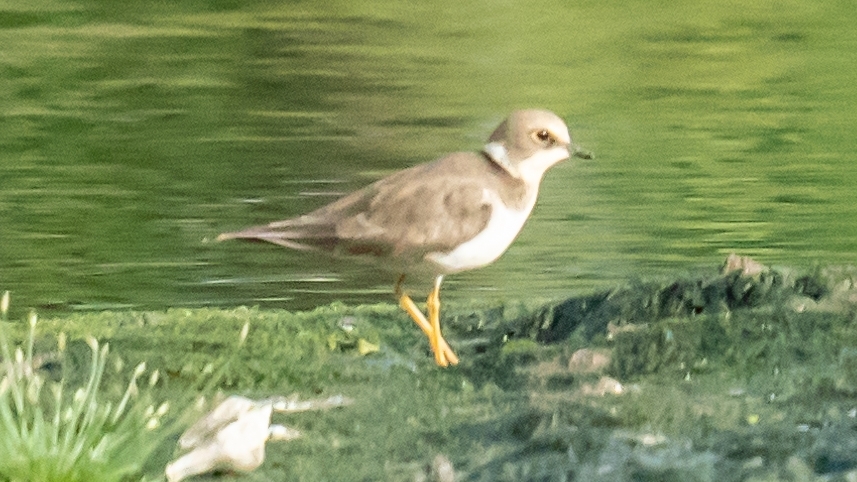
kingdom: Animalia
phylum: Chordata
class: Aves
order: Charadriiformes
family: Charadriidae
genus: Charadrius
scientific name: Charadrius dubius
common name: Little ringed plover
